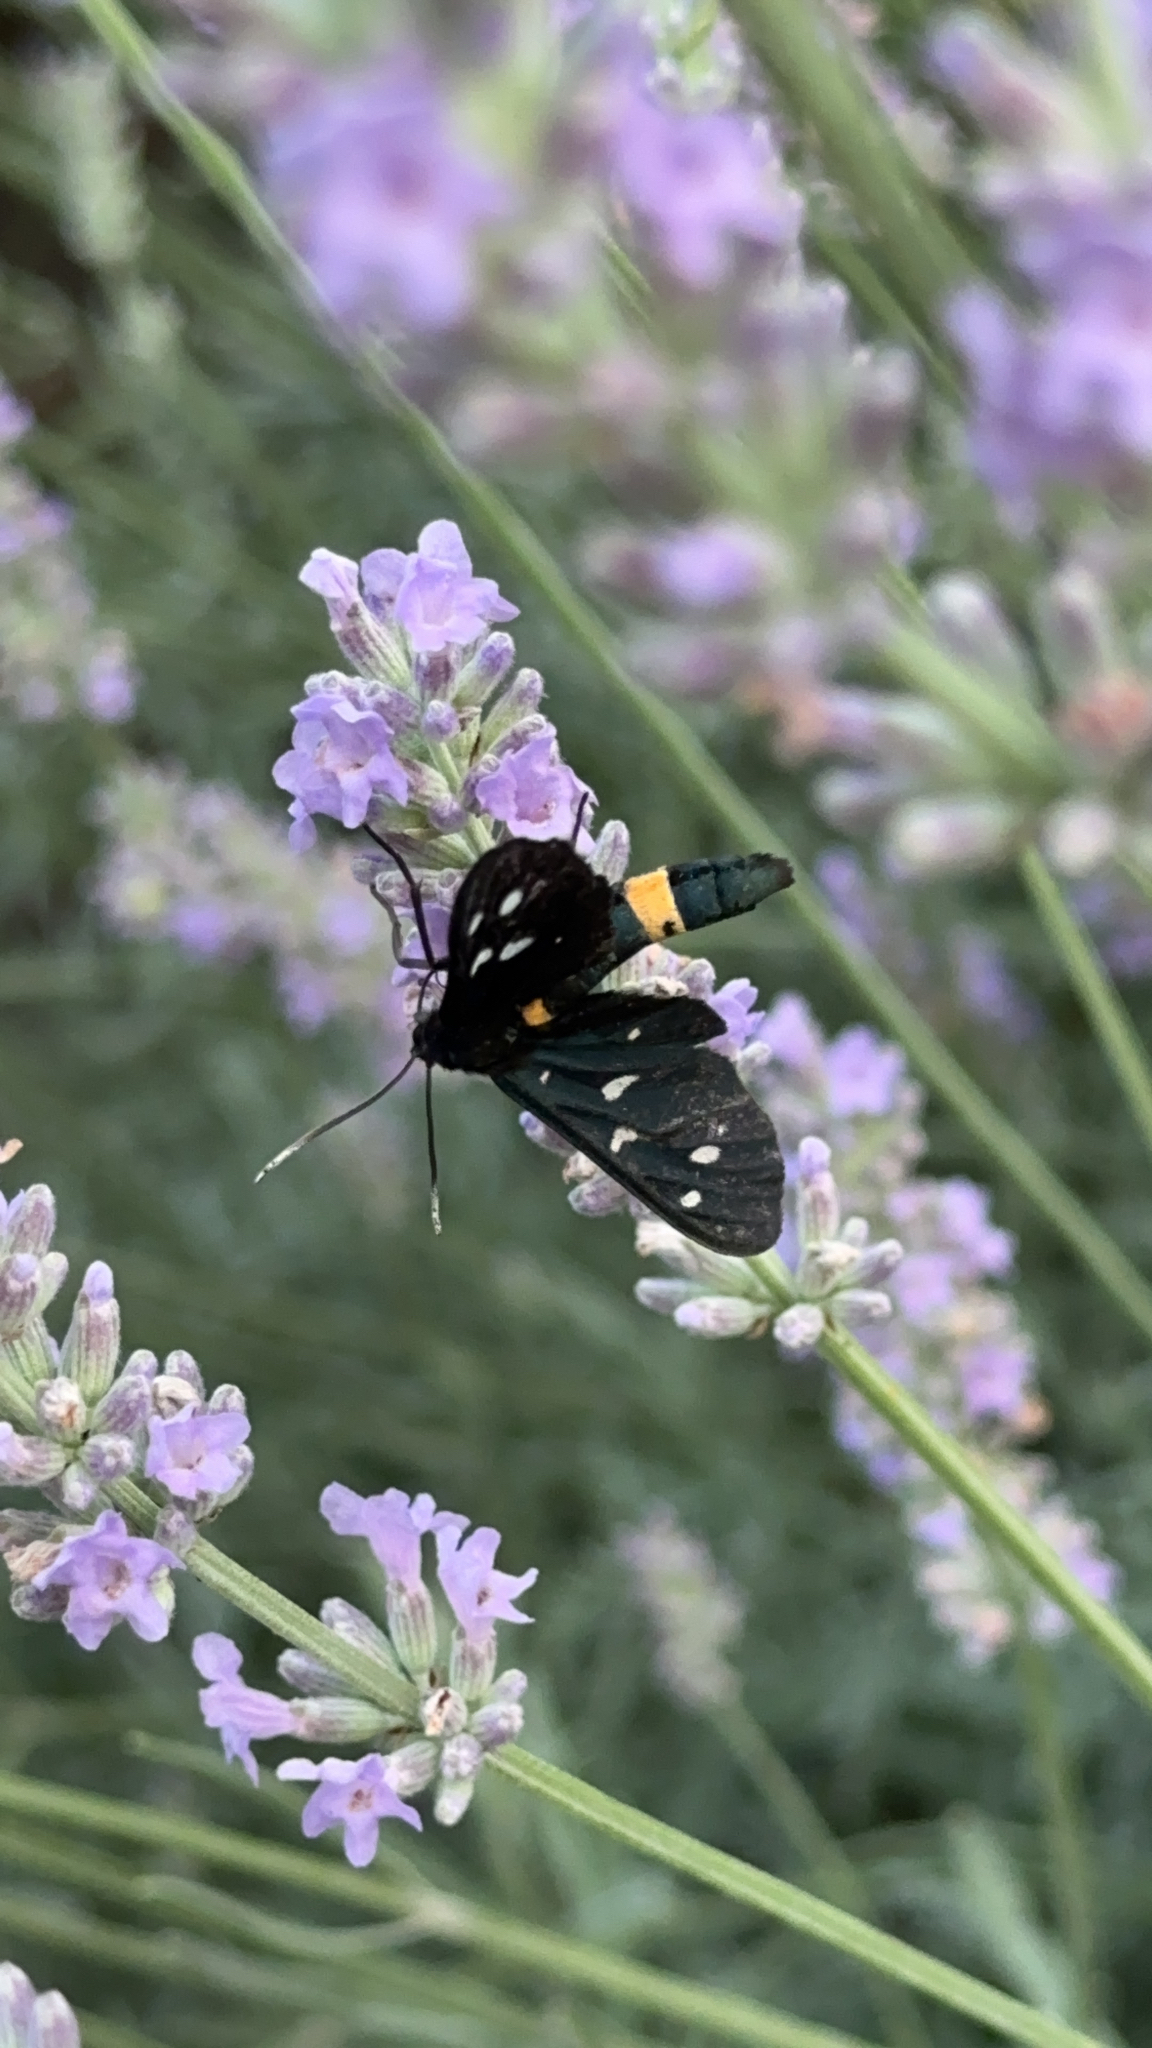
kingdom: Animalia
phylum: Arthropoda
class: Insecta
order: Lepidoptera
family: Erebidae
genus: Amata
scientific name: Amata phegea
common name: Nine-spotted
